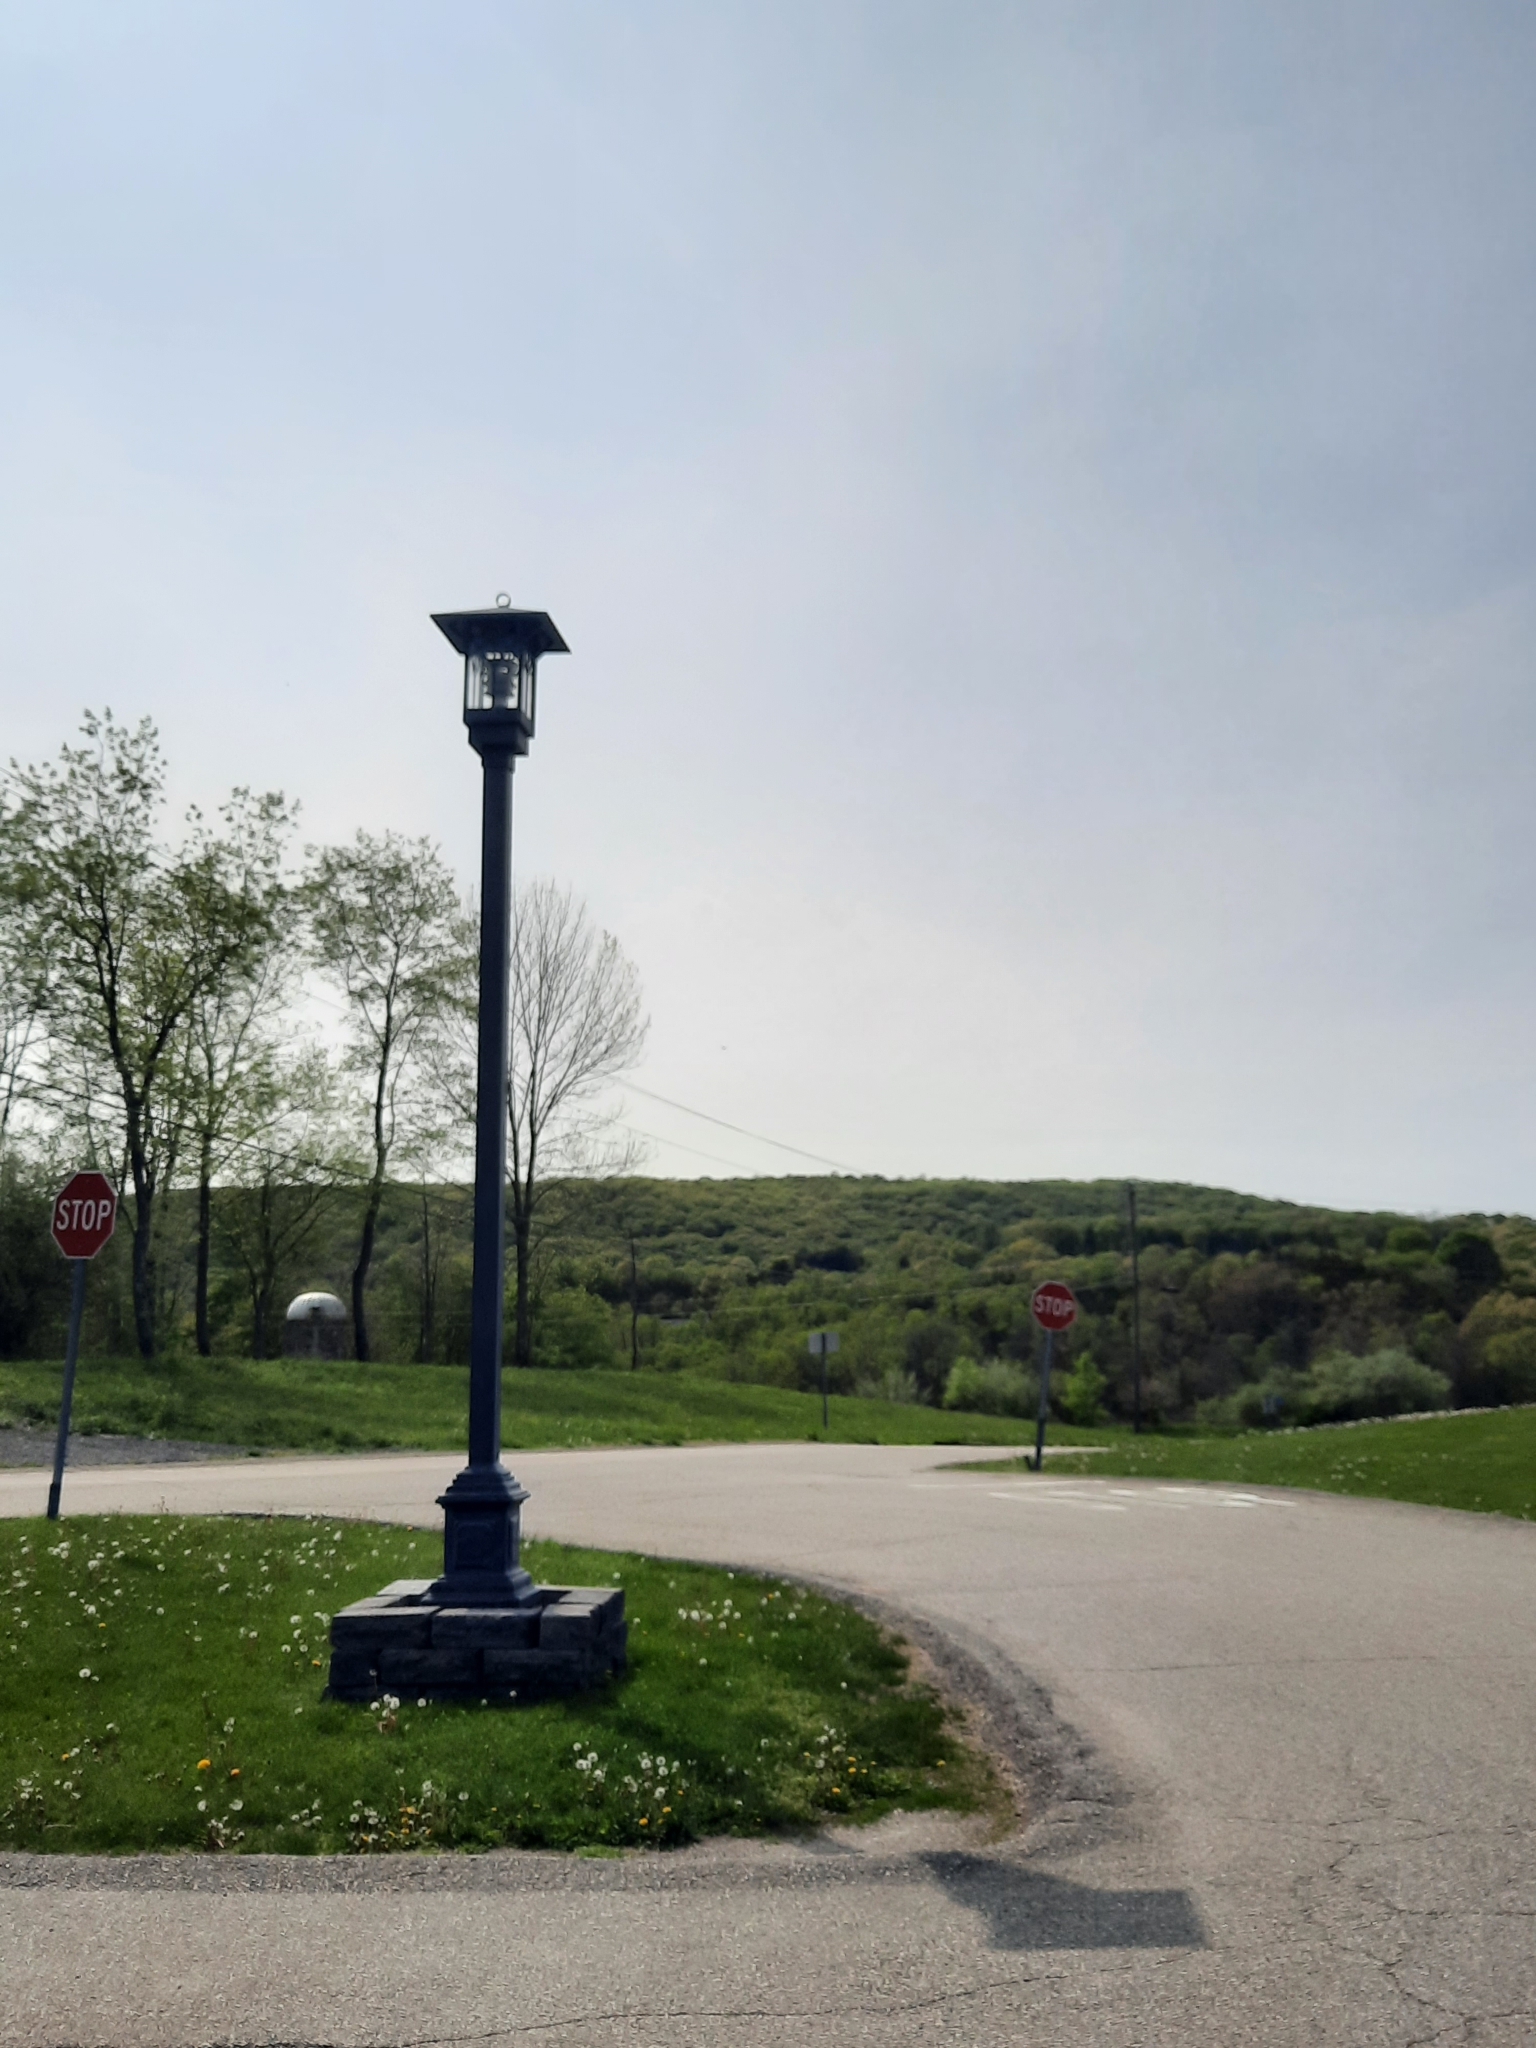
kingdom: Animalia
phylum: Chordata
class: Aves
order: Accipitriformes
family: Cathartidae
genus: Cathartes
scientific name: Cathartes aura
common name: Turkey vulture
